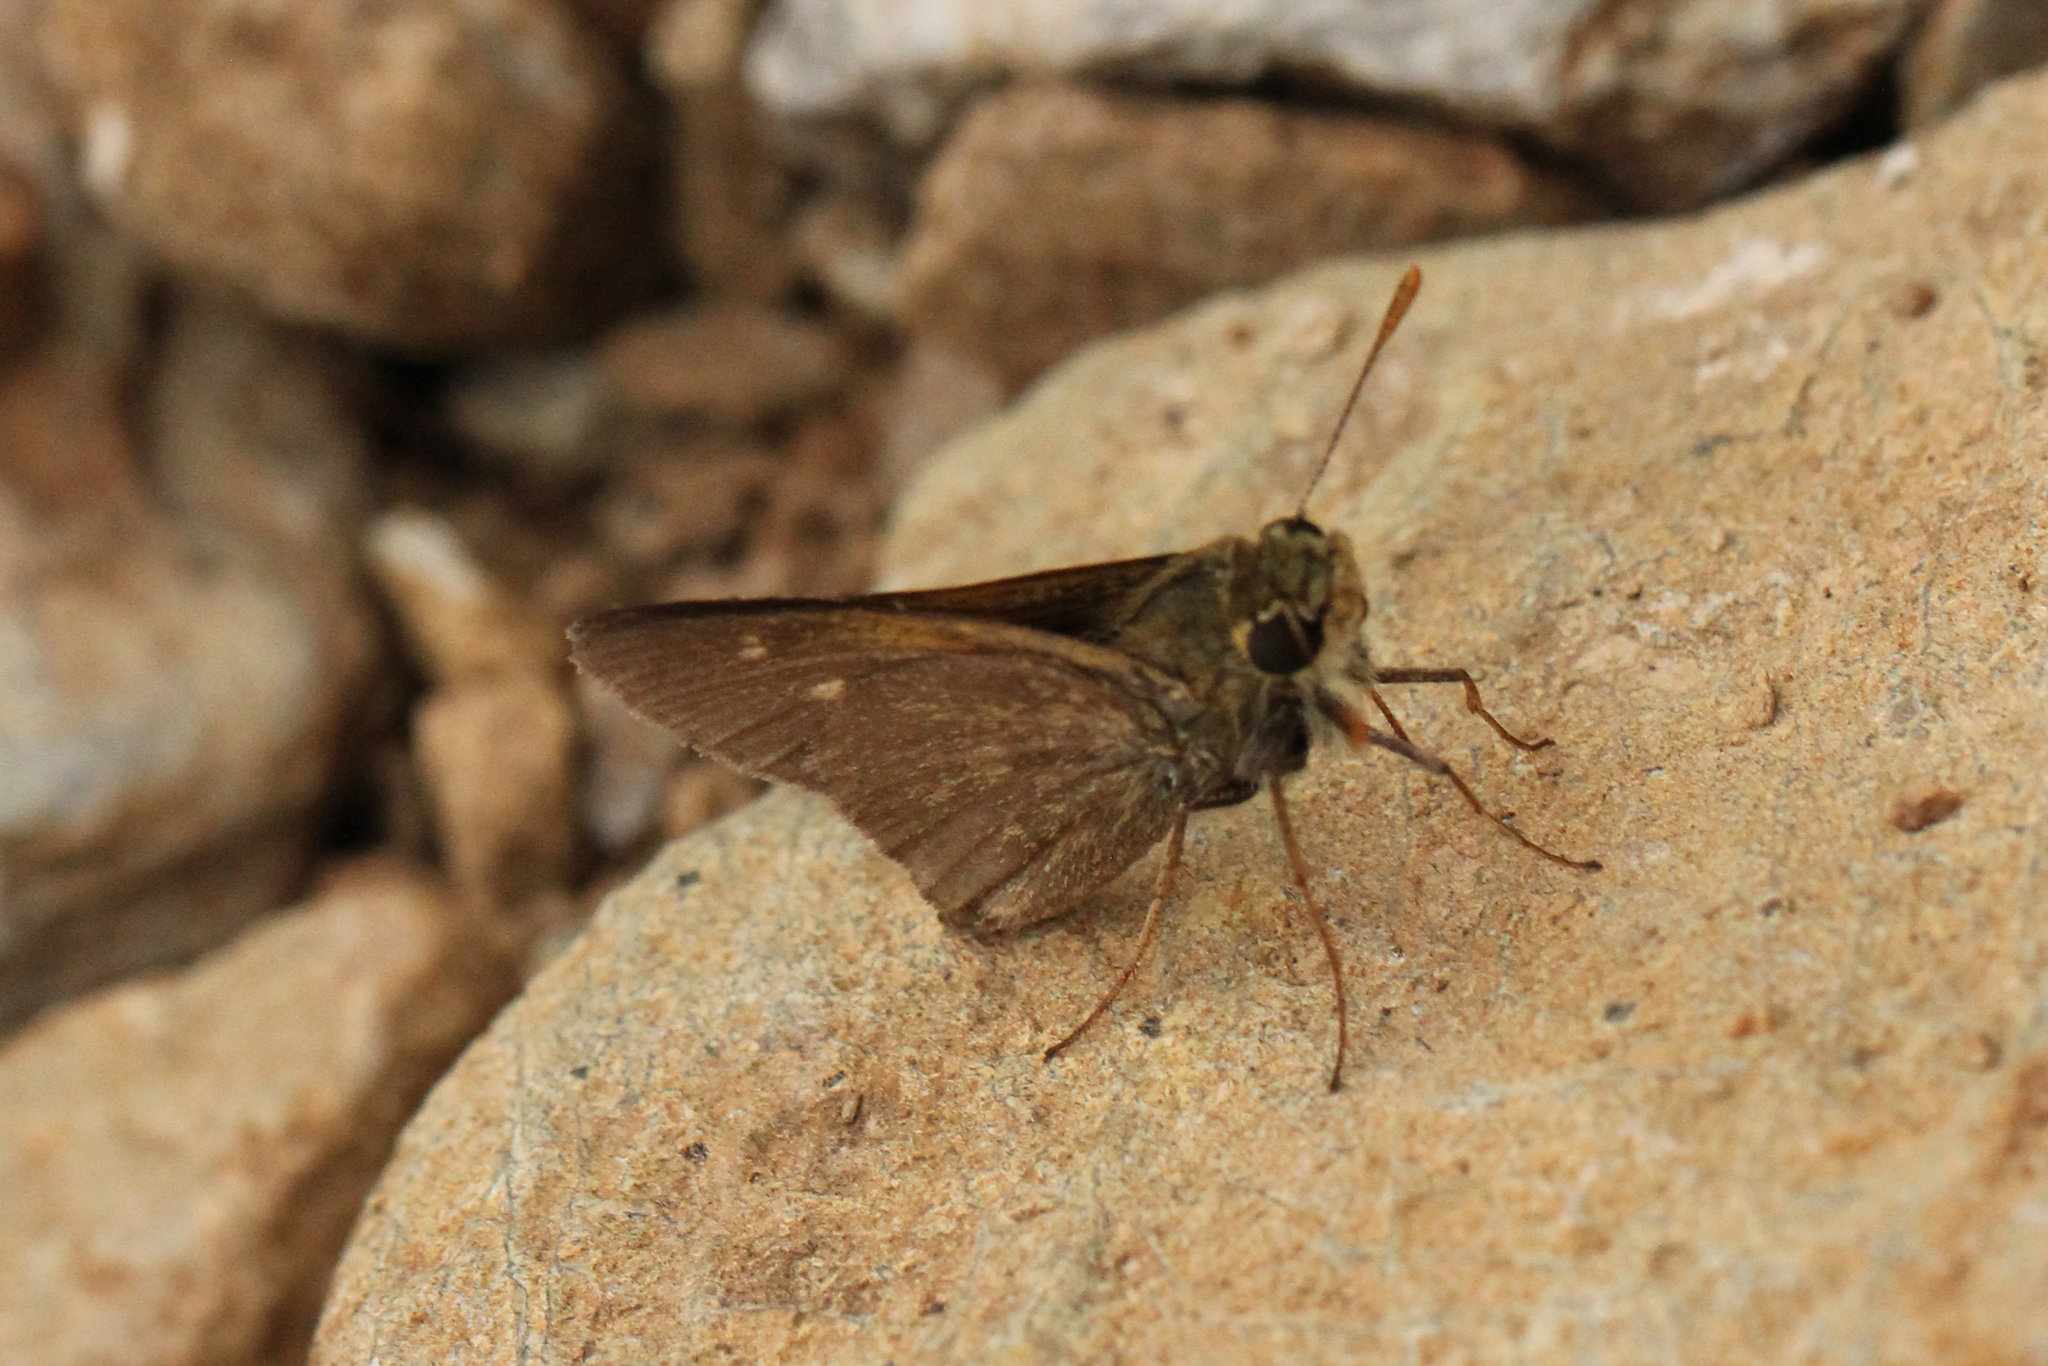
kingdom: Animalia
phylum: Arthropoda
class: Insecta
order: Lepidoptera
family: Hesperiidae
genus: Polites
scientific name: Polites themistocles
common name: Tawny-edged skipper
